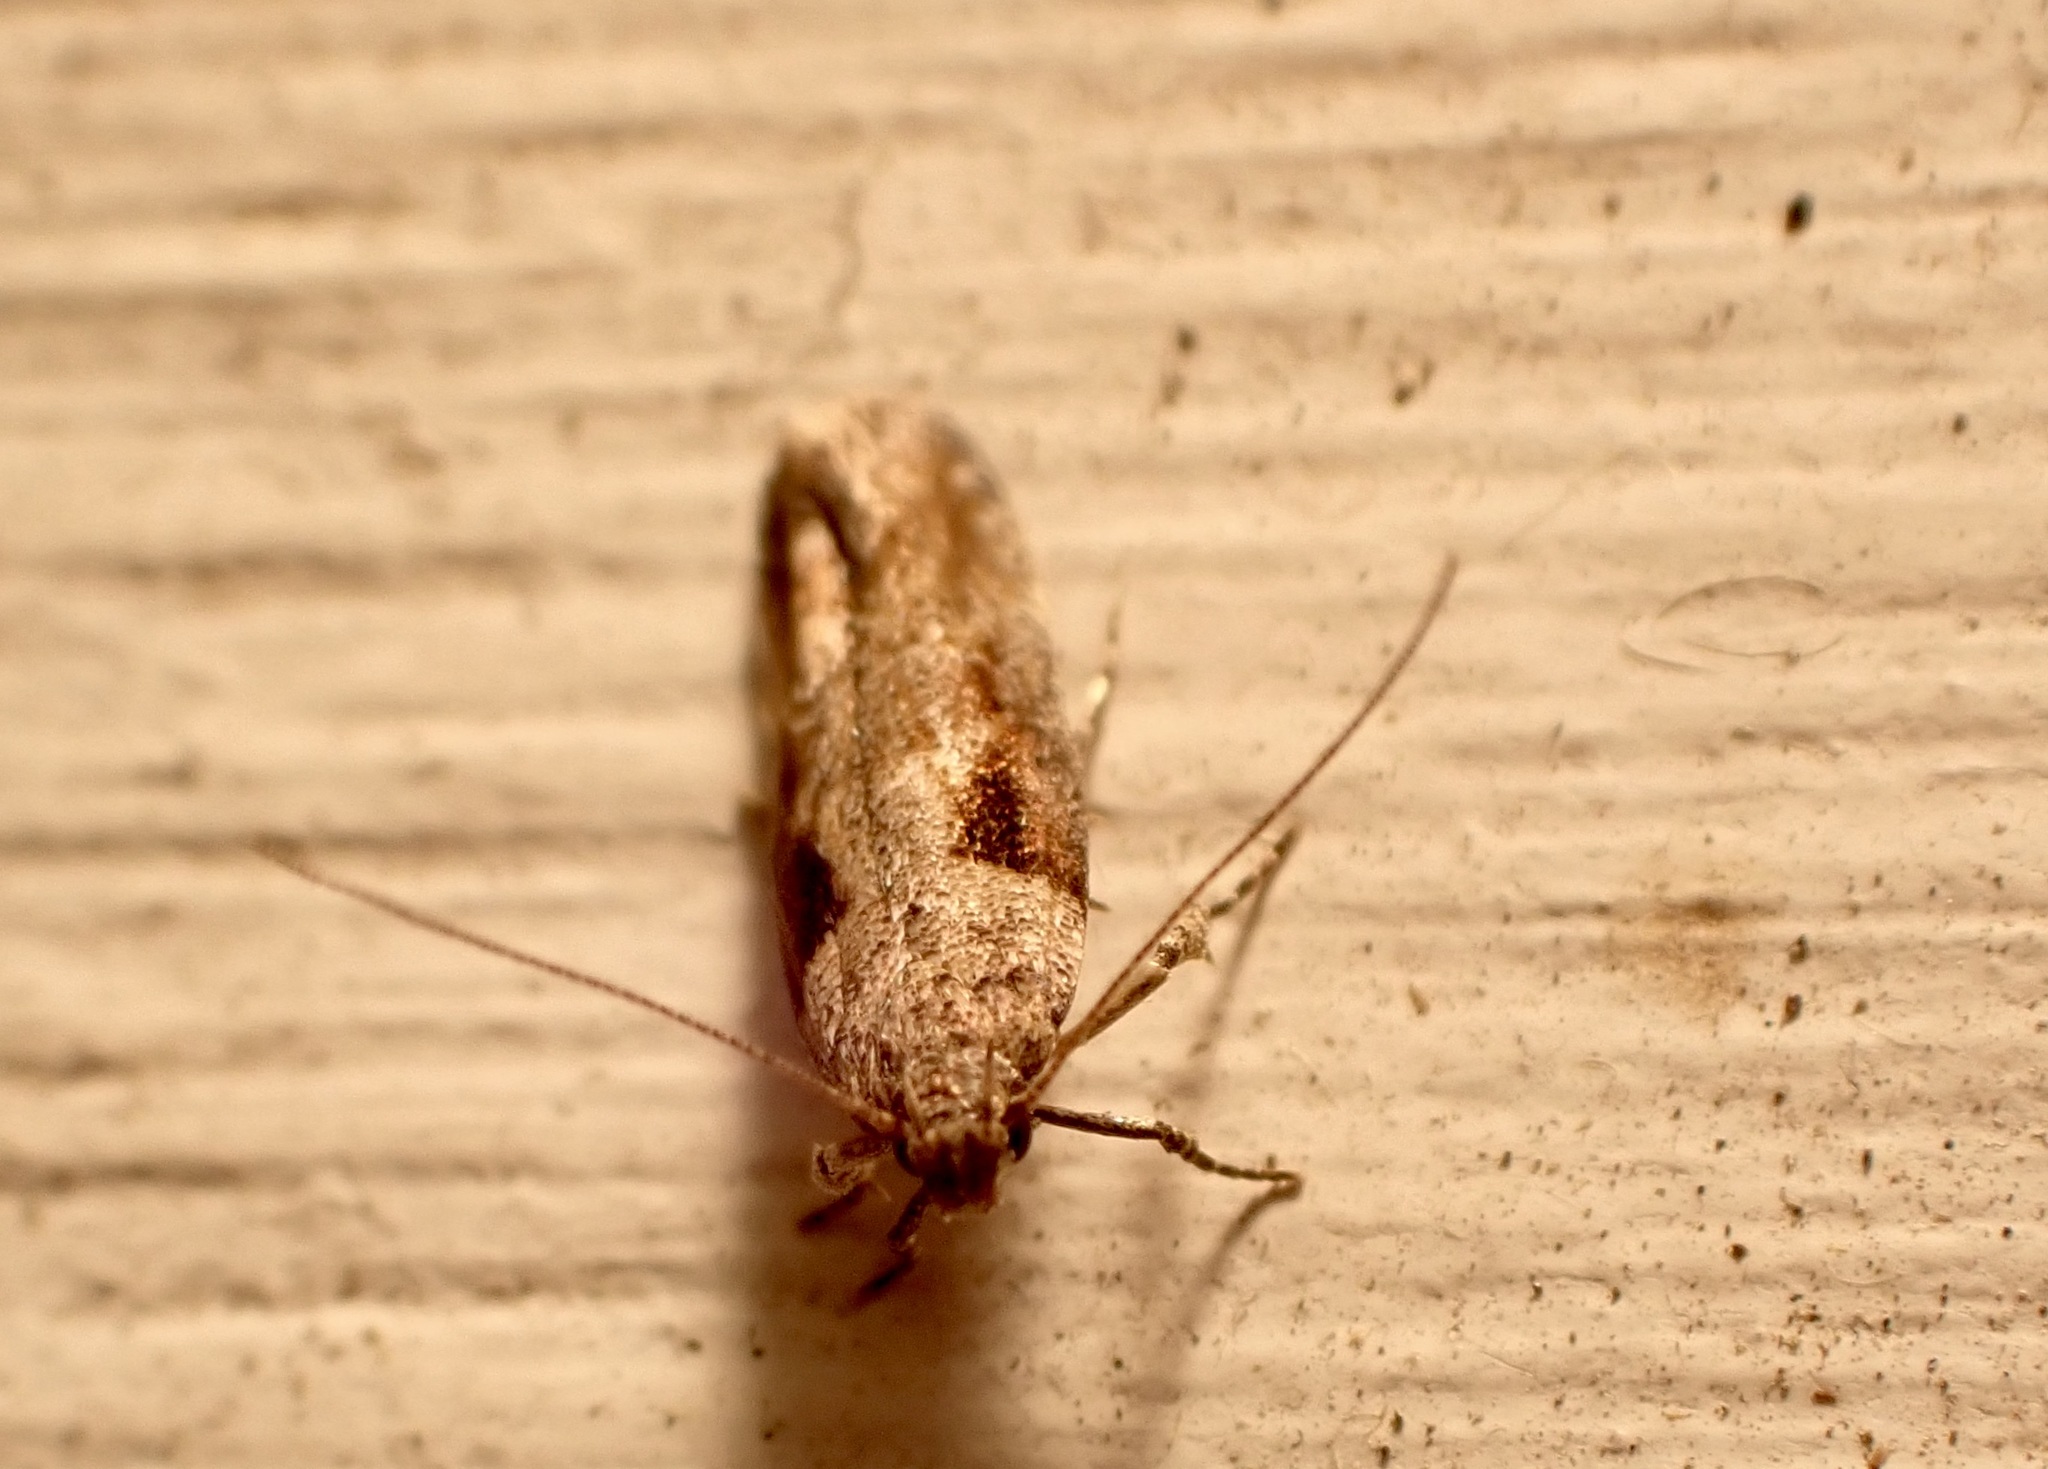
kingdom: Animalia
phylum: Arthropoda
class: Insecta
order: Lepidoptera
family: Gelechiidae
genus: Symmetrischema
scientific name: Symmetrischema tangolias
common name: Moth
